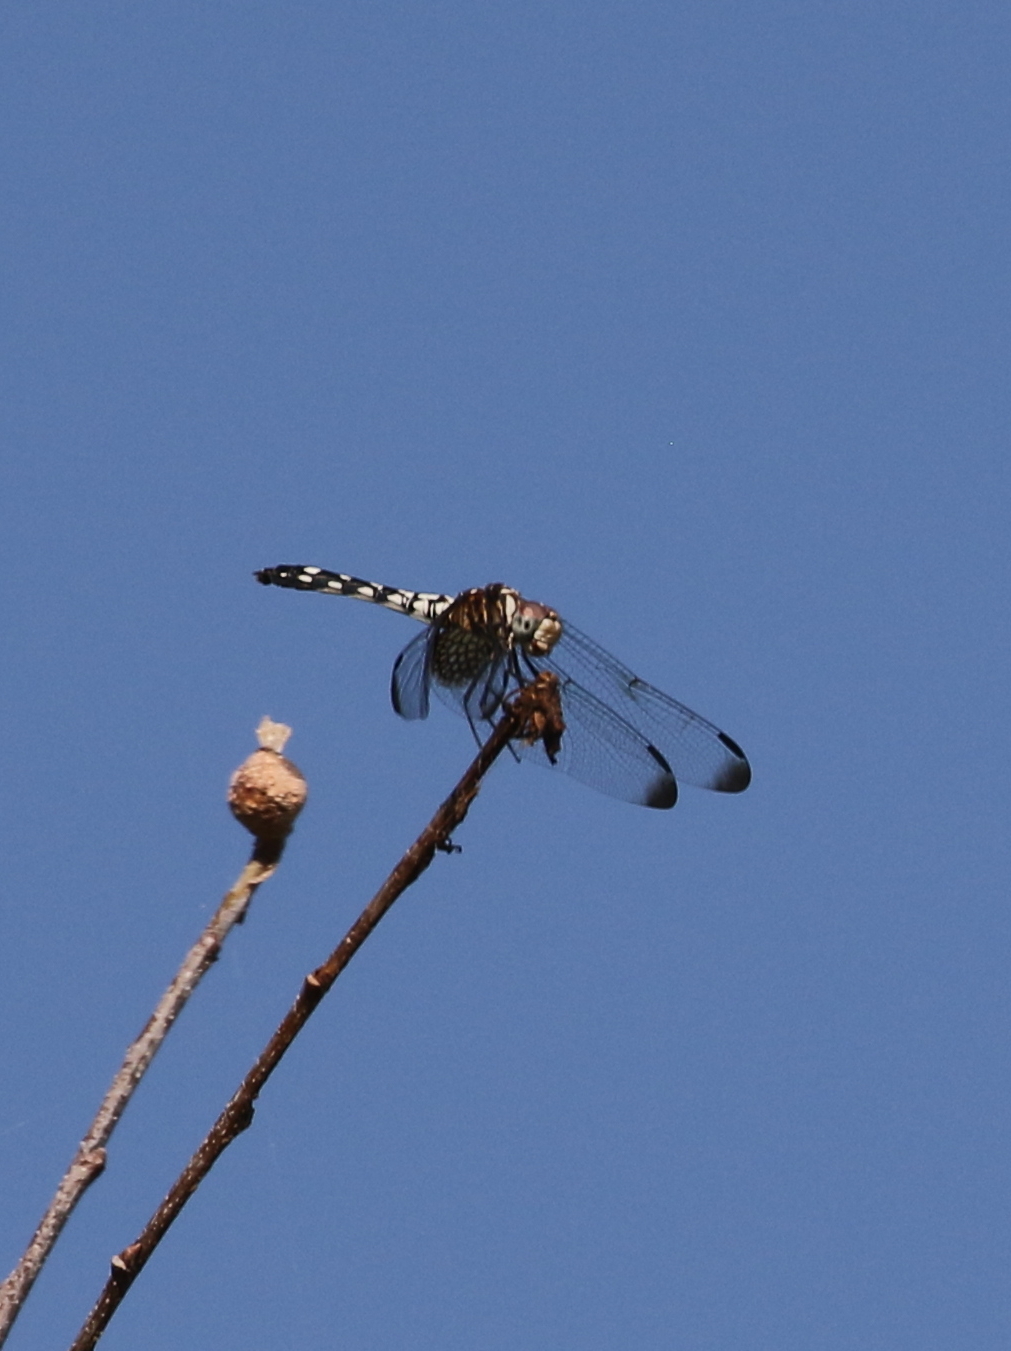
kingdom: Animalia
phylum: Arthropoda
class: Insecta
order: Odonata
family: Libellulidae
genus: Dythemis
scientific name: Dythemis fugax
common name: Checkered setwing
